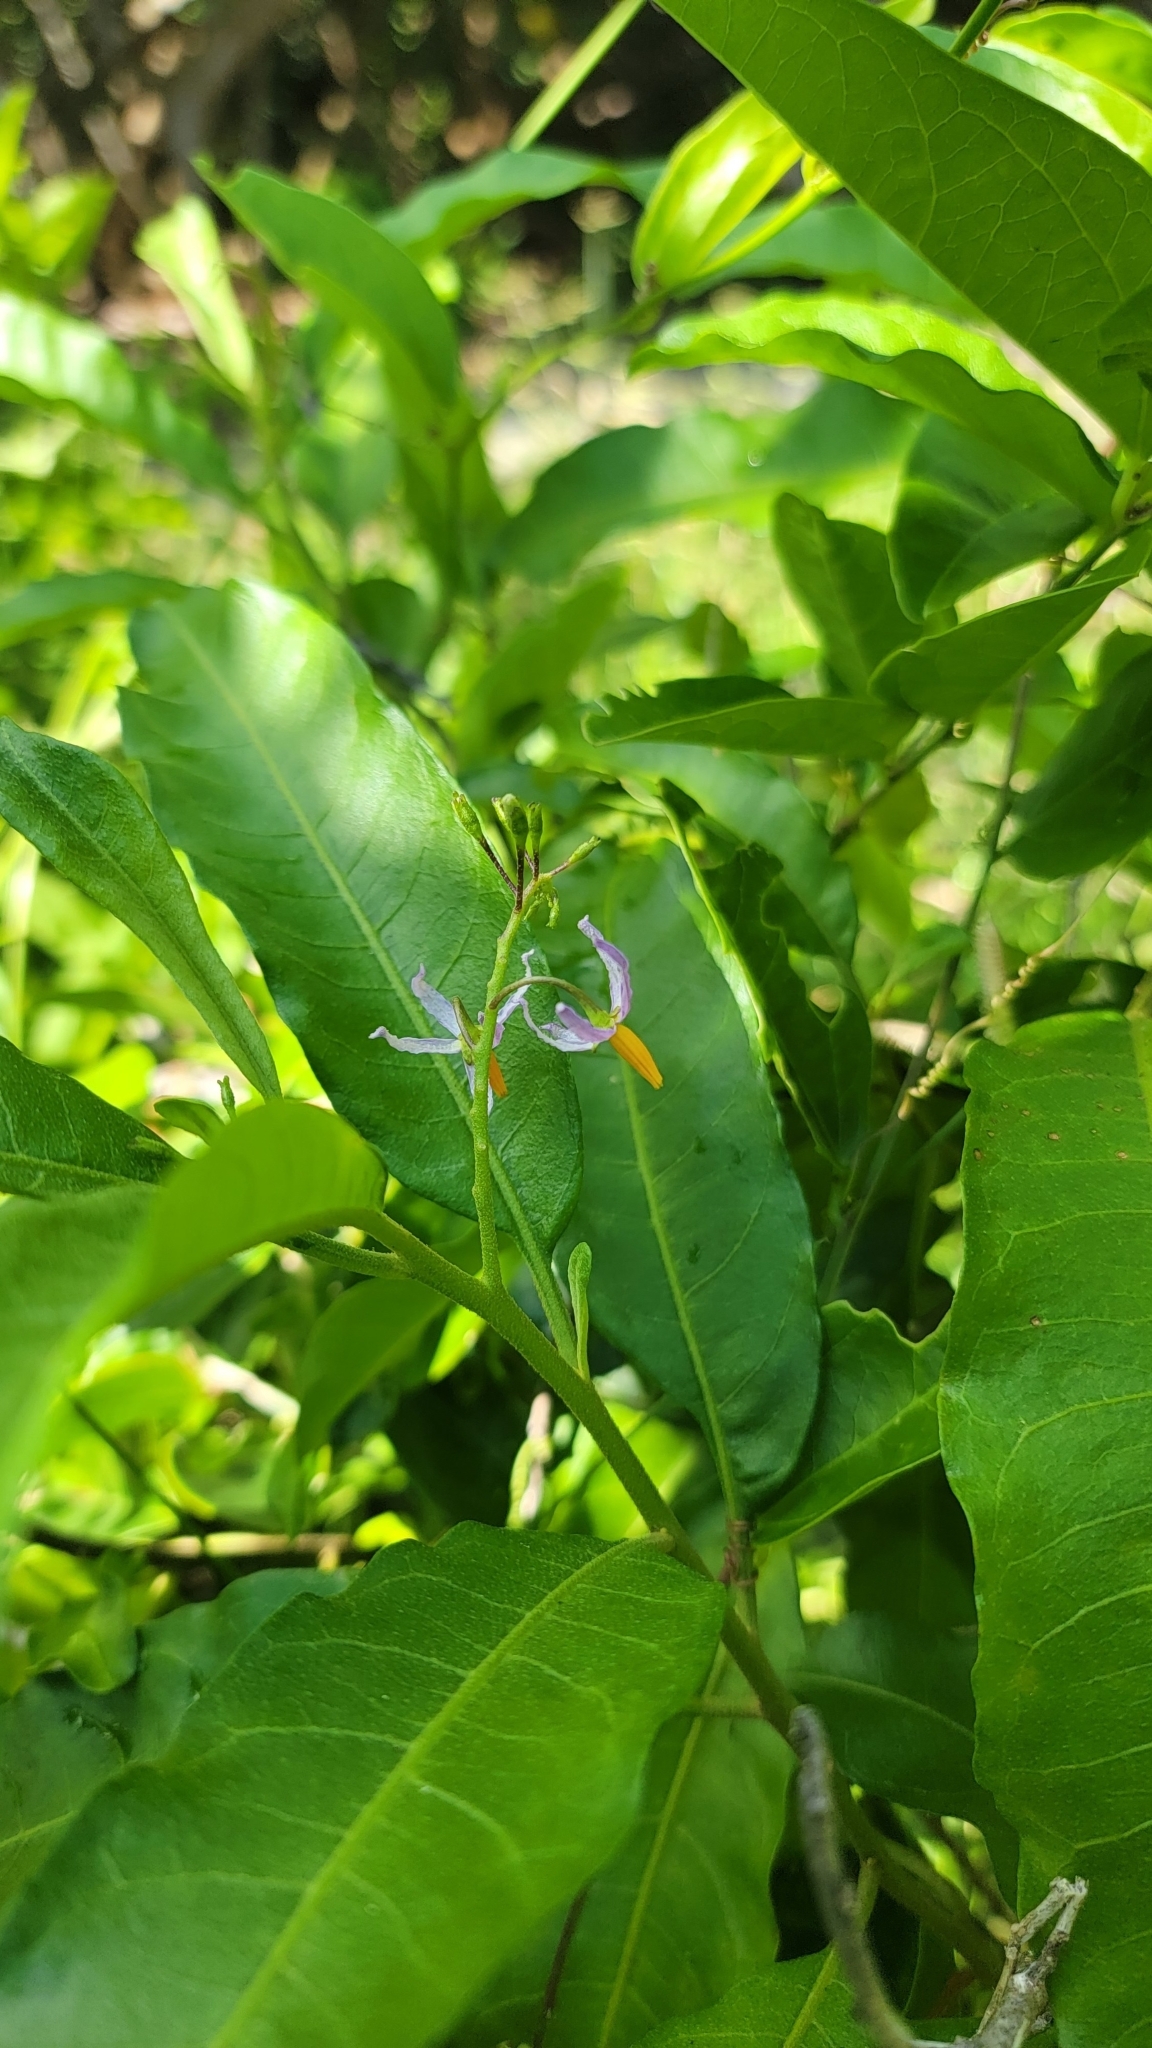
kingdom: Plantae
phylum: Tracheophyta
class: Magnoliopsida
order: Solanales
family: Solanaceae
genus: Solanum
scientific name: Solanum bahamense
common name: Canker-berry
